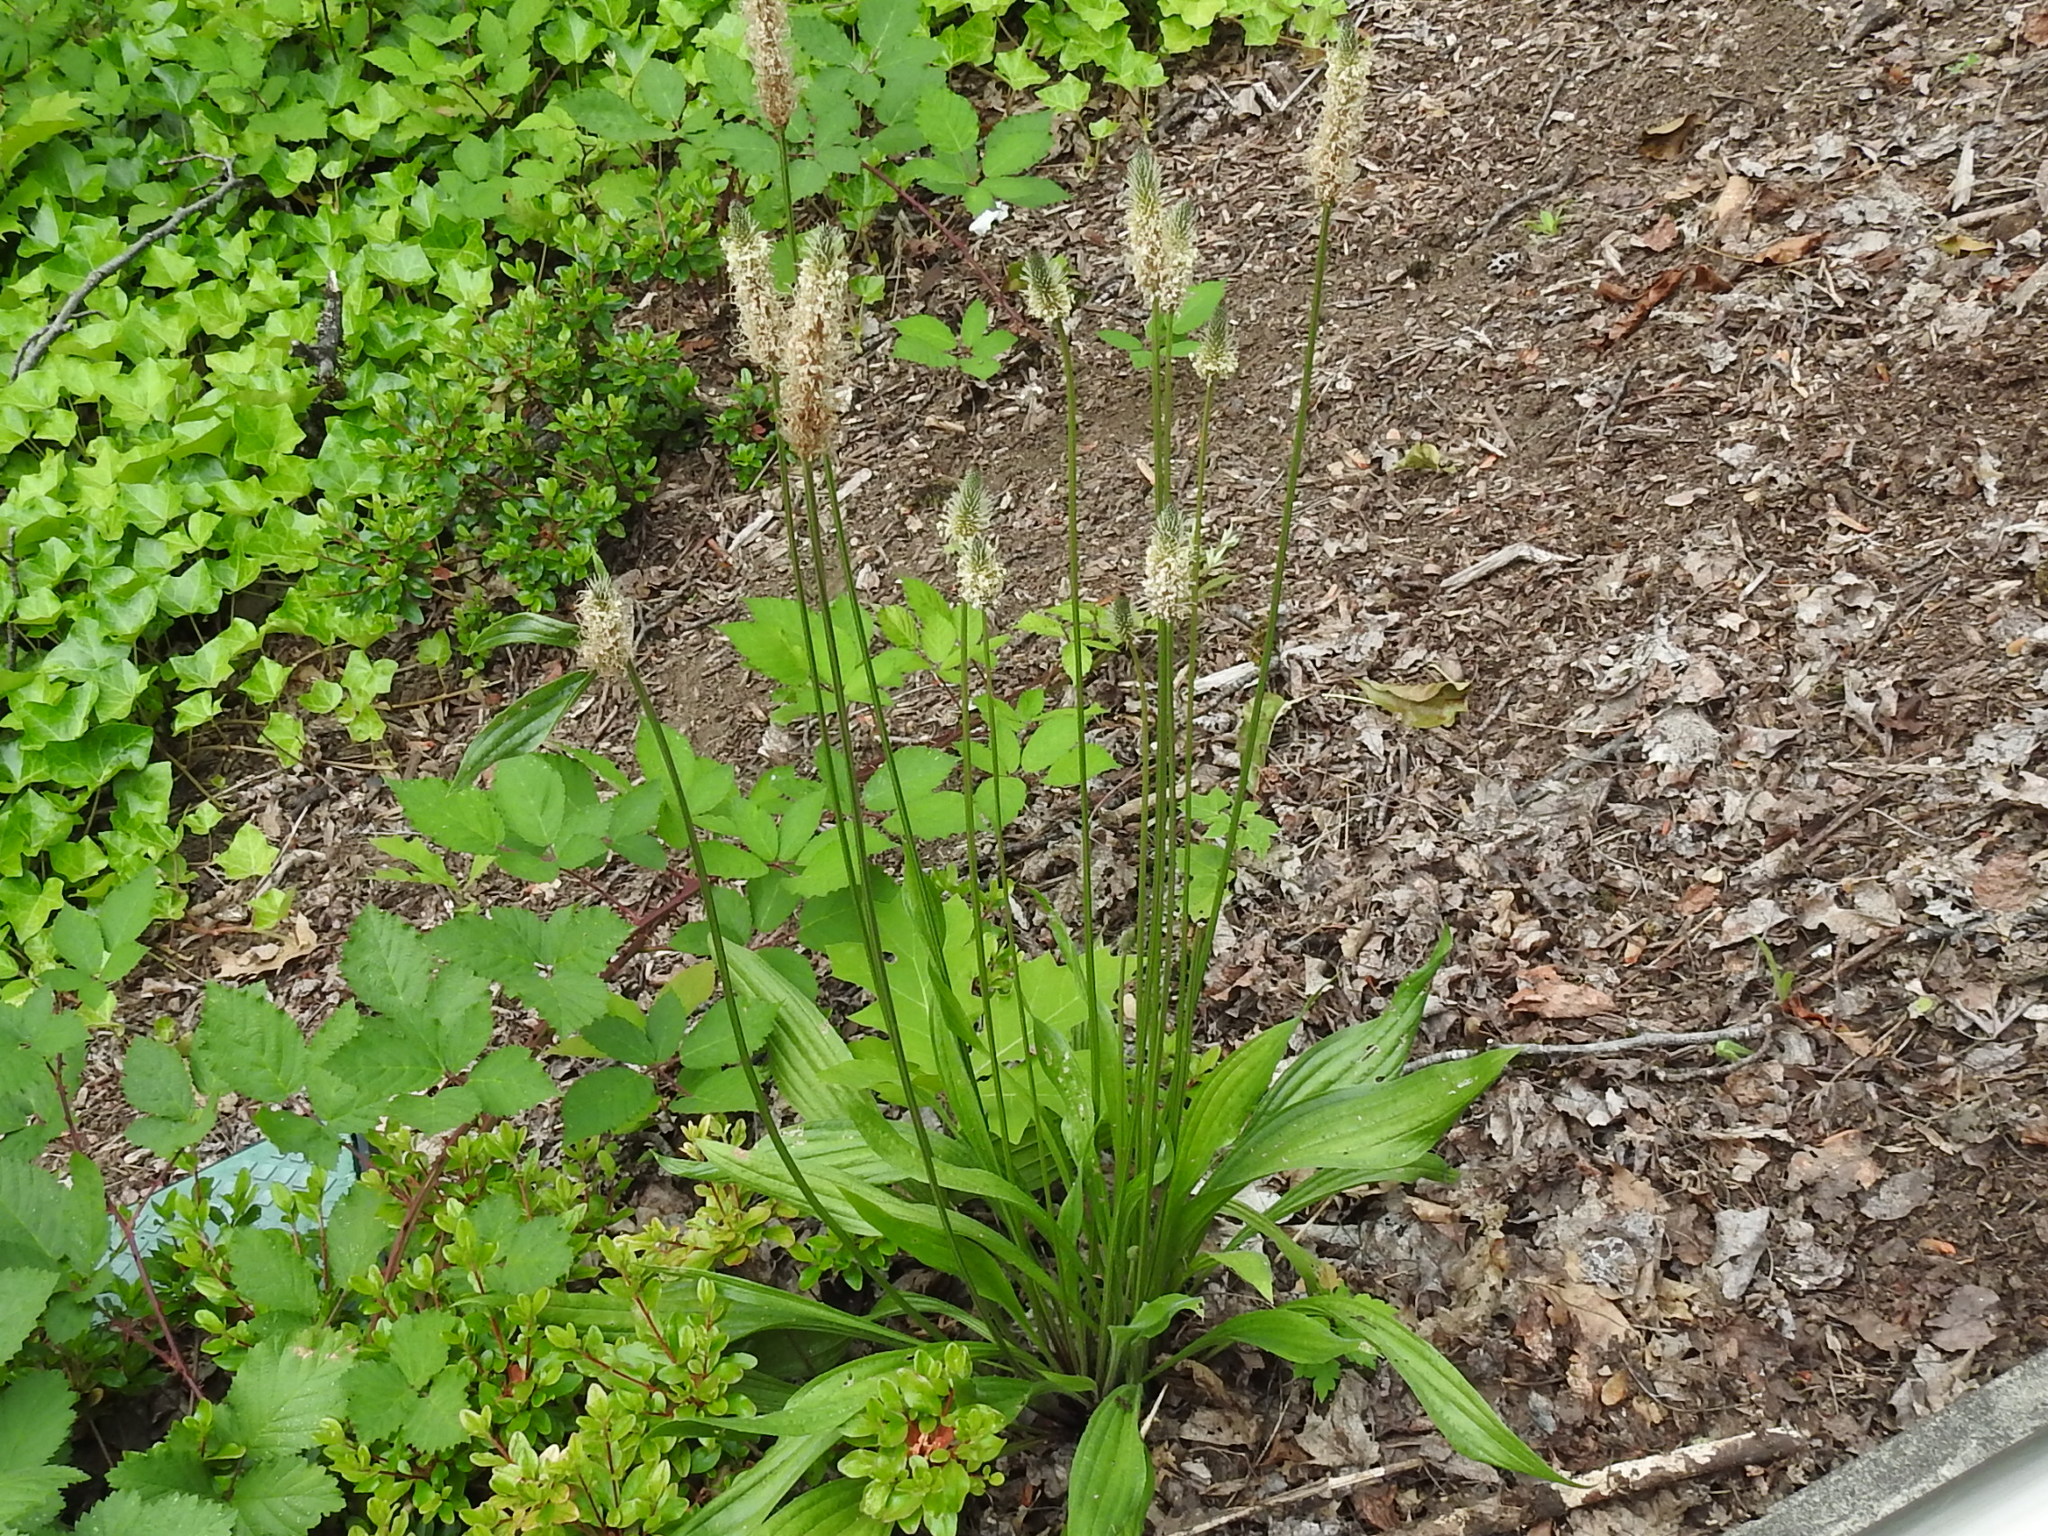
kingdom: Plantae
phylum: Tracheophyta
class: Magnoliopsida
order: Lamiales
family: Plantaginaceae
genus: Plantago
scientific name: Plantago lanceolata
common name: Ribwort plantain
